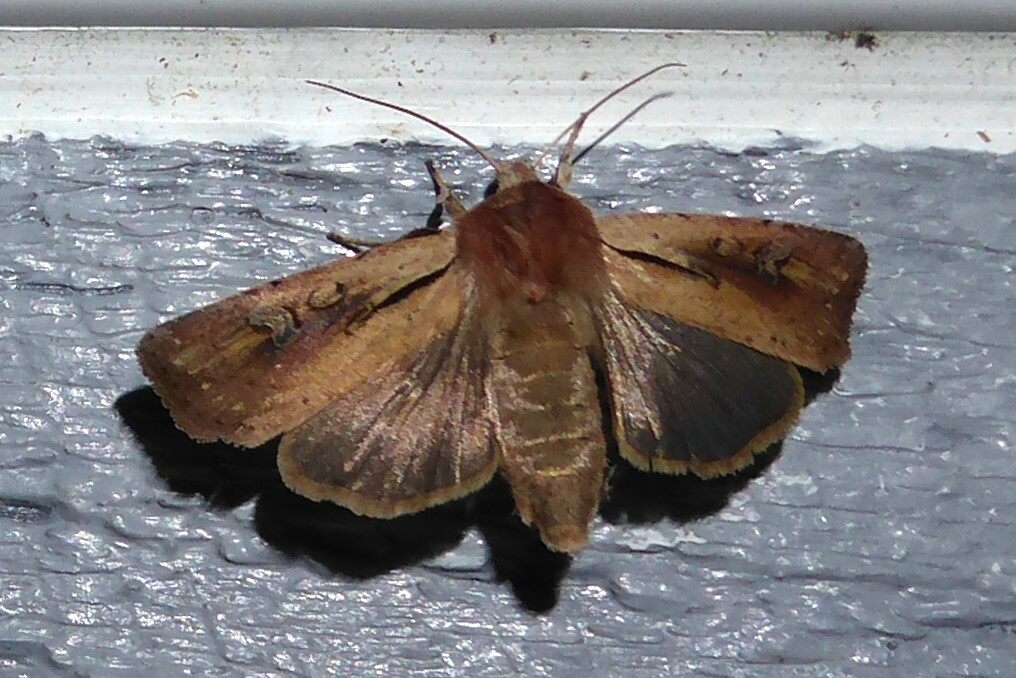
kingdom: Animalia
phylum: Arthropoda
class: Insecta
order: Lepidoptera
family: Noctuidae
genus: Ichneutica
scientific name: Ichneutica atristriga
